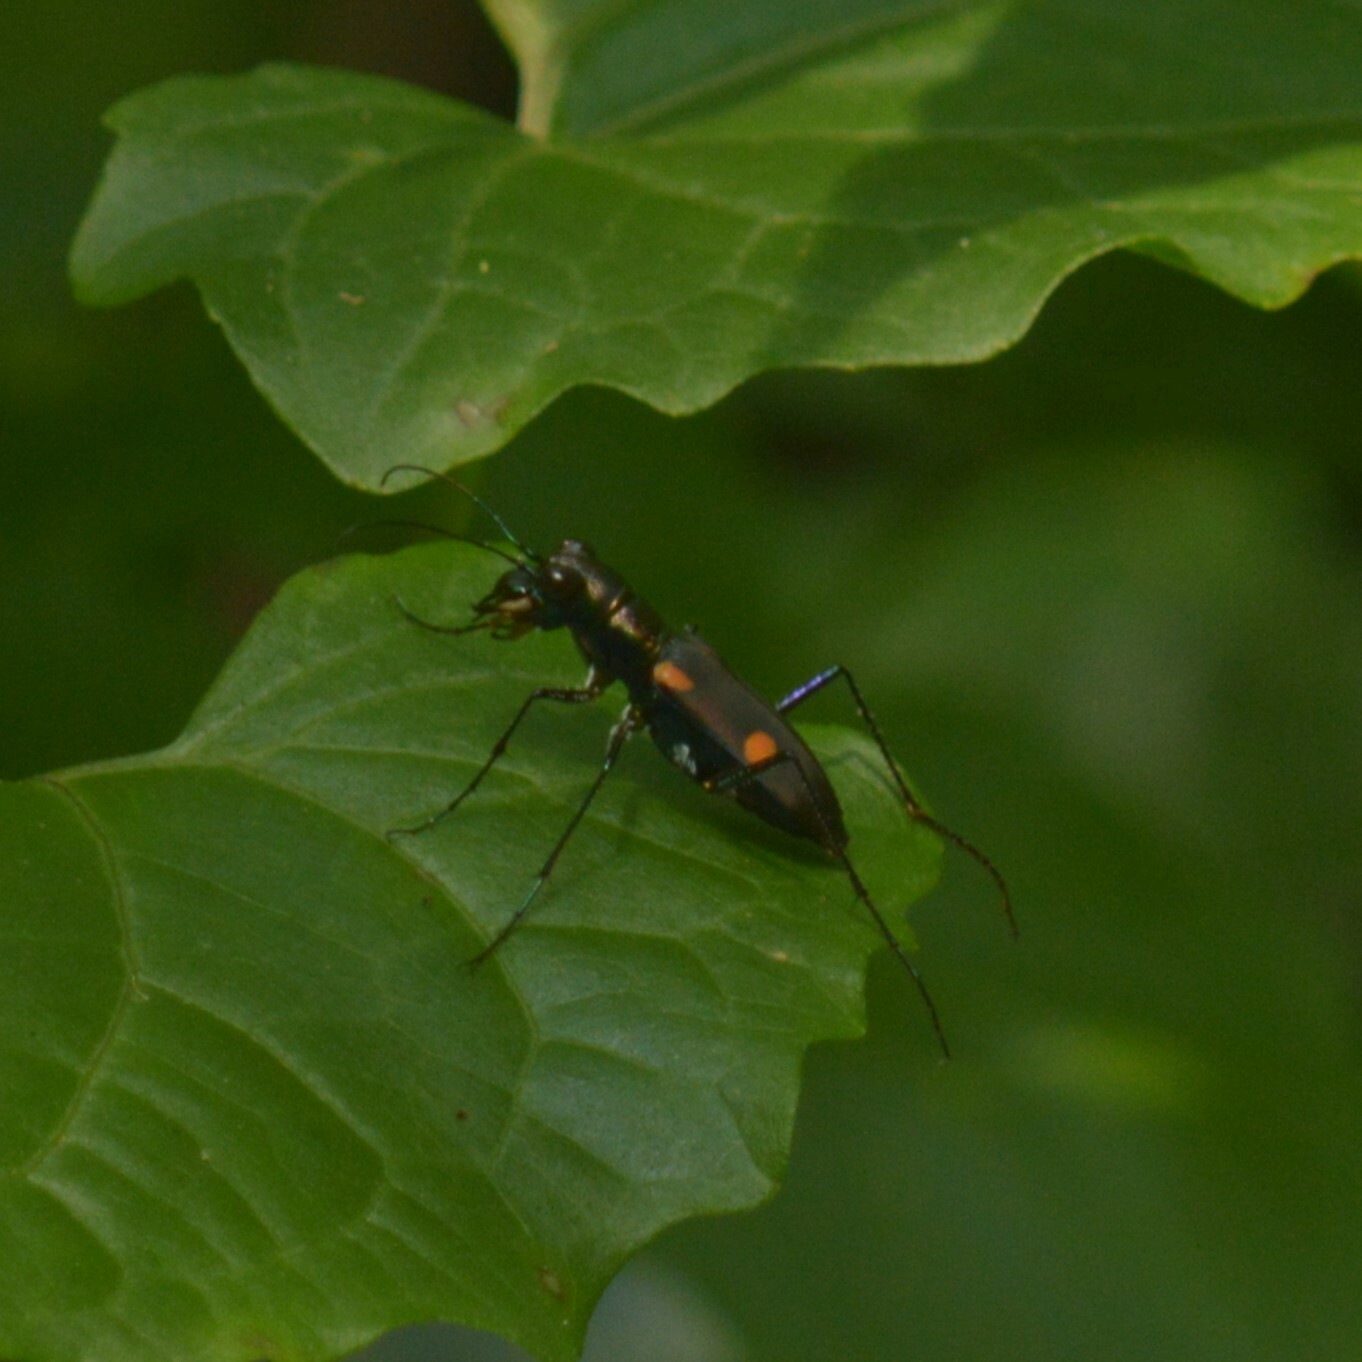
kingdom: Animalia
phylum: Arthropoda
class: Insecta
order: Coleoptera
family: Carabidae
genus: Cicindela
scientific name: Cicindela assamensis
